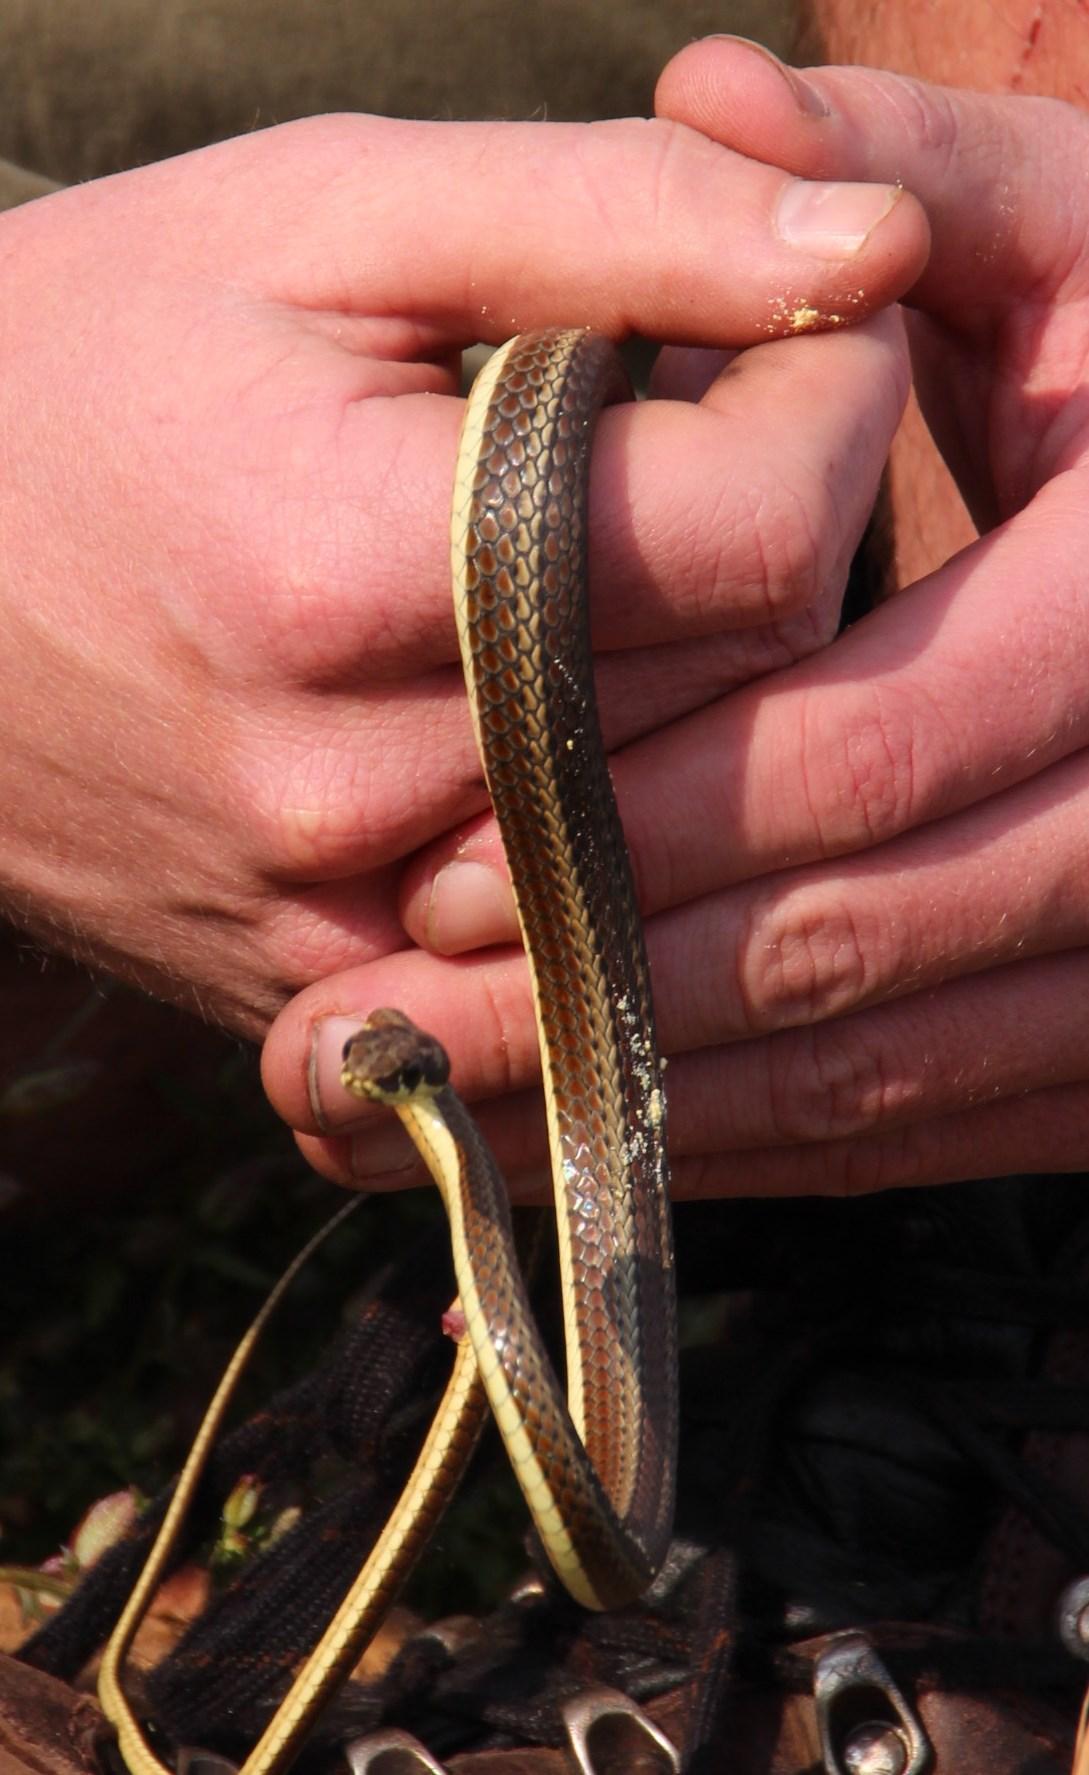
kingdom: Animalia
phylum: Chordata
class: Squamata
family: Psammophiidae
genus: Psammophis
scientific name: Psammophis notostictus
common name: Karoo sand snake
